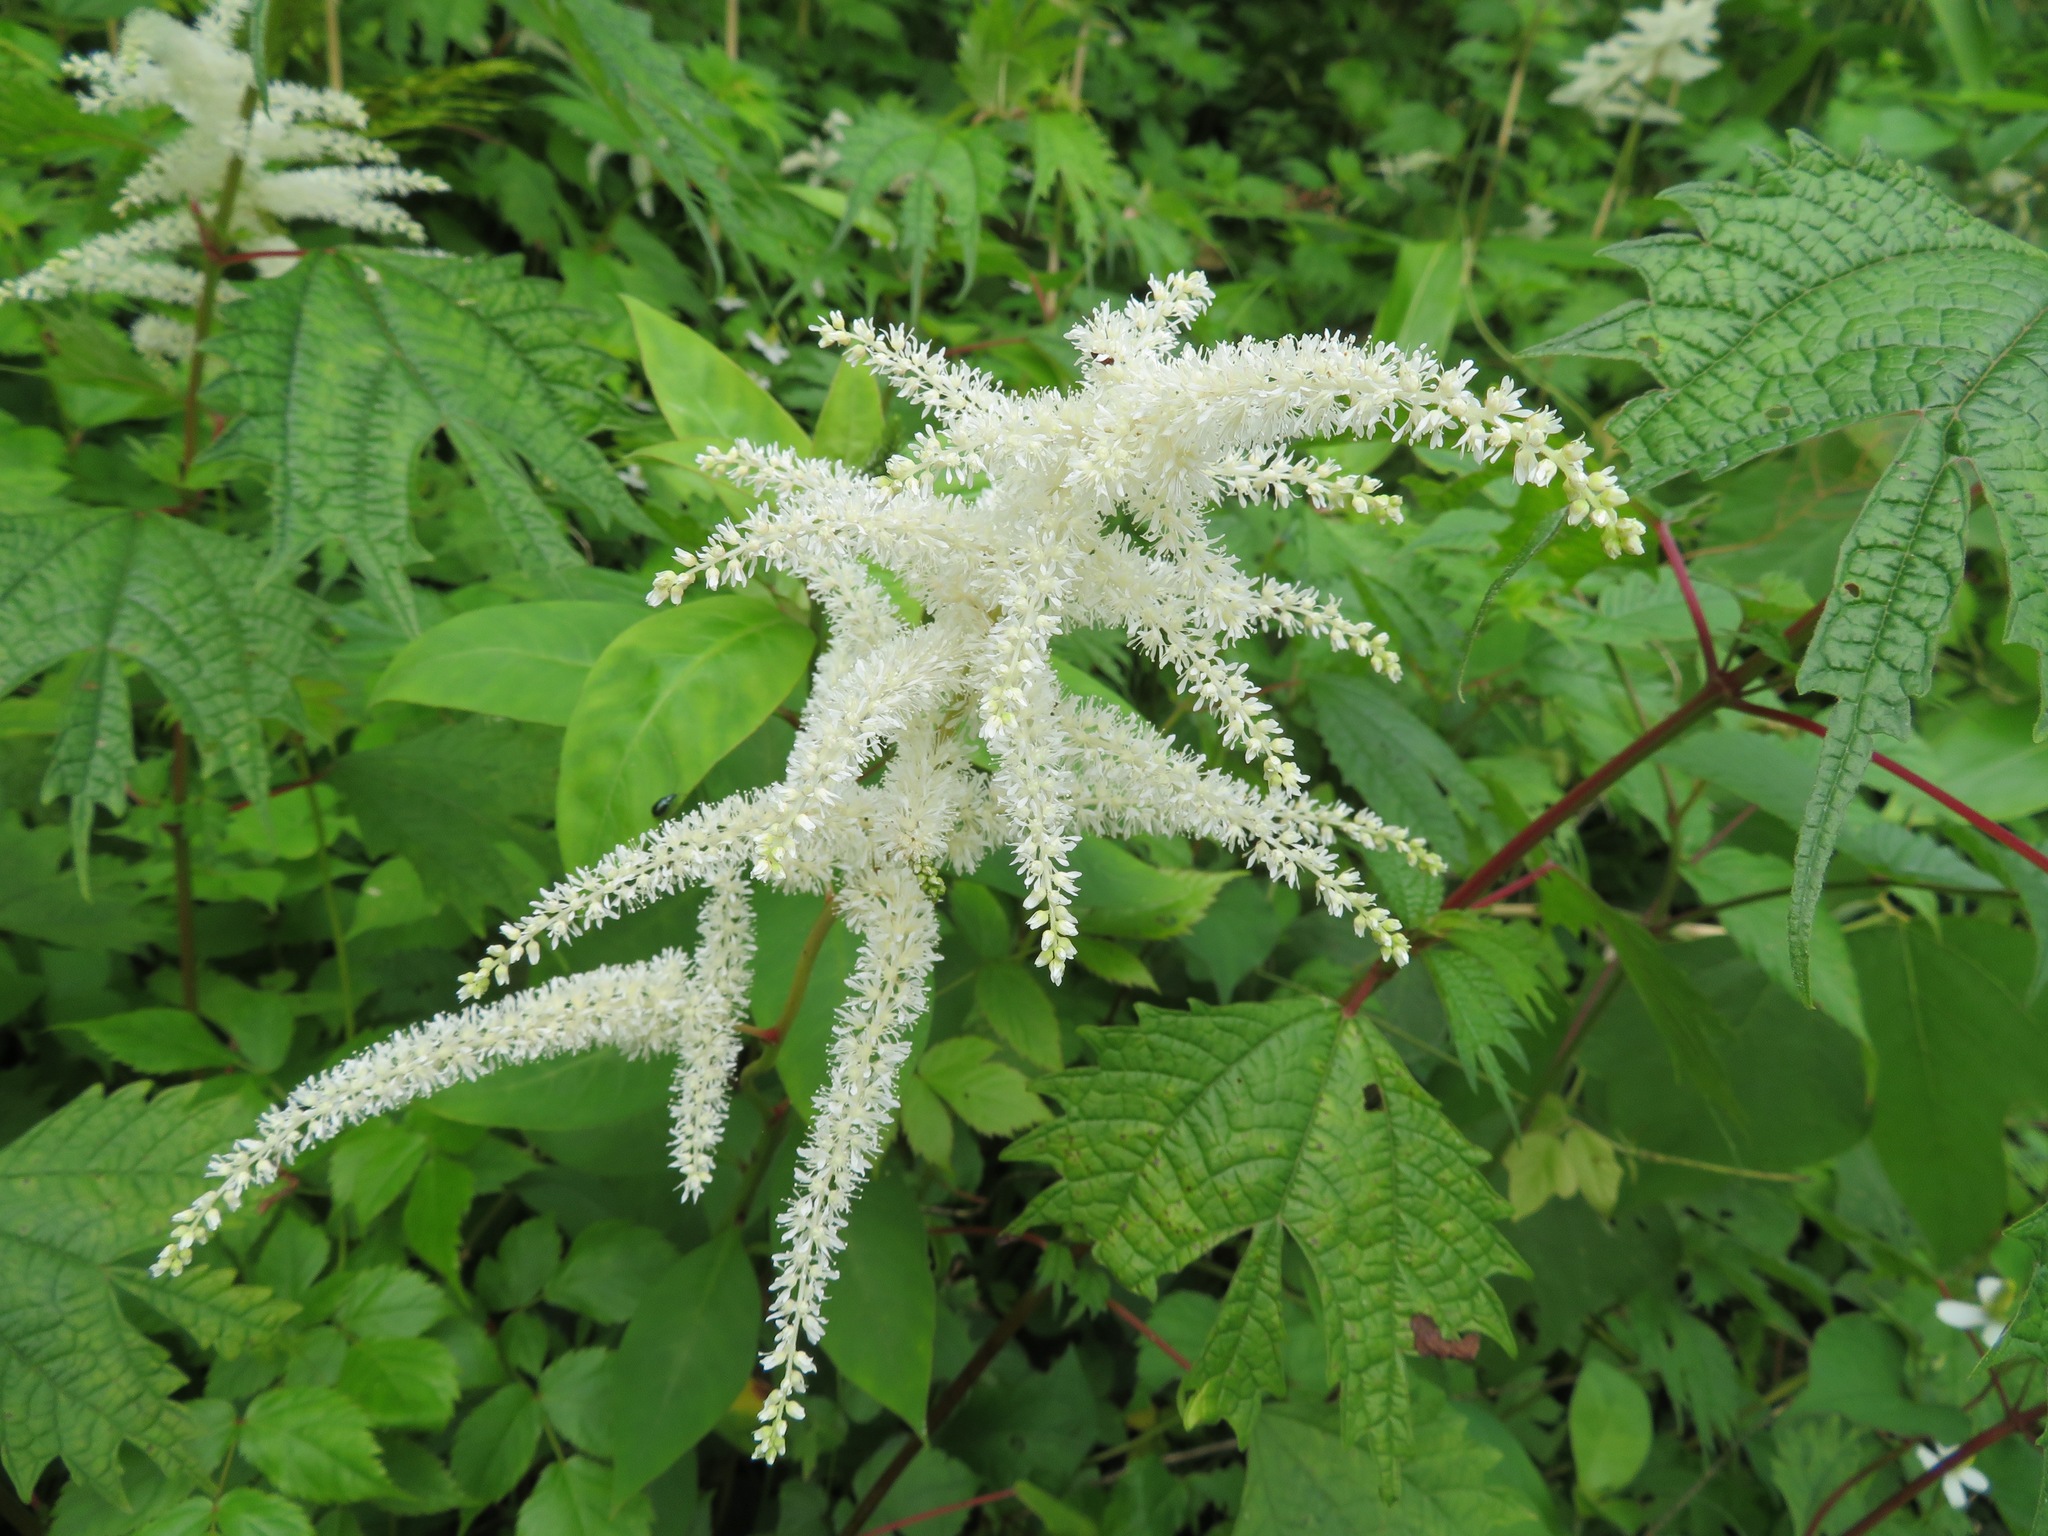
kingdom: Plantae
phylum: Tracheophyta
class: Magnoliopsida
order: Rosales
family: Rosaceae
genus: Aruncus
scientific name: Aruncus dioicus
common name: Buck's-beard
